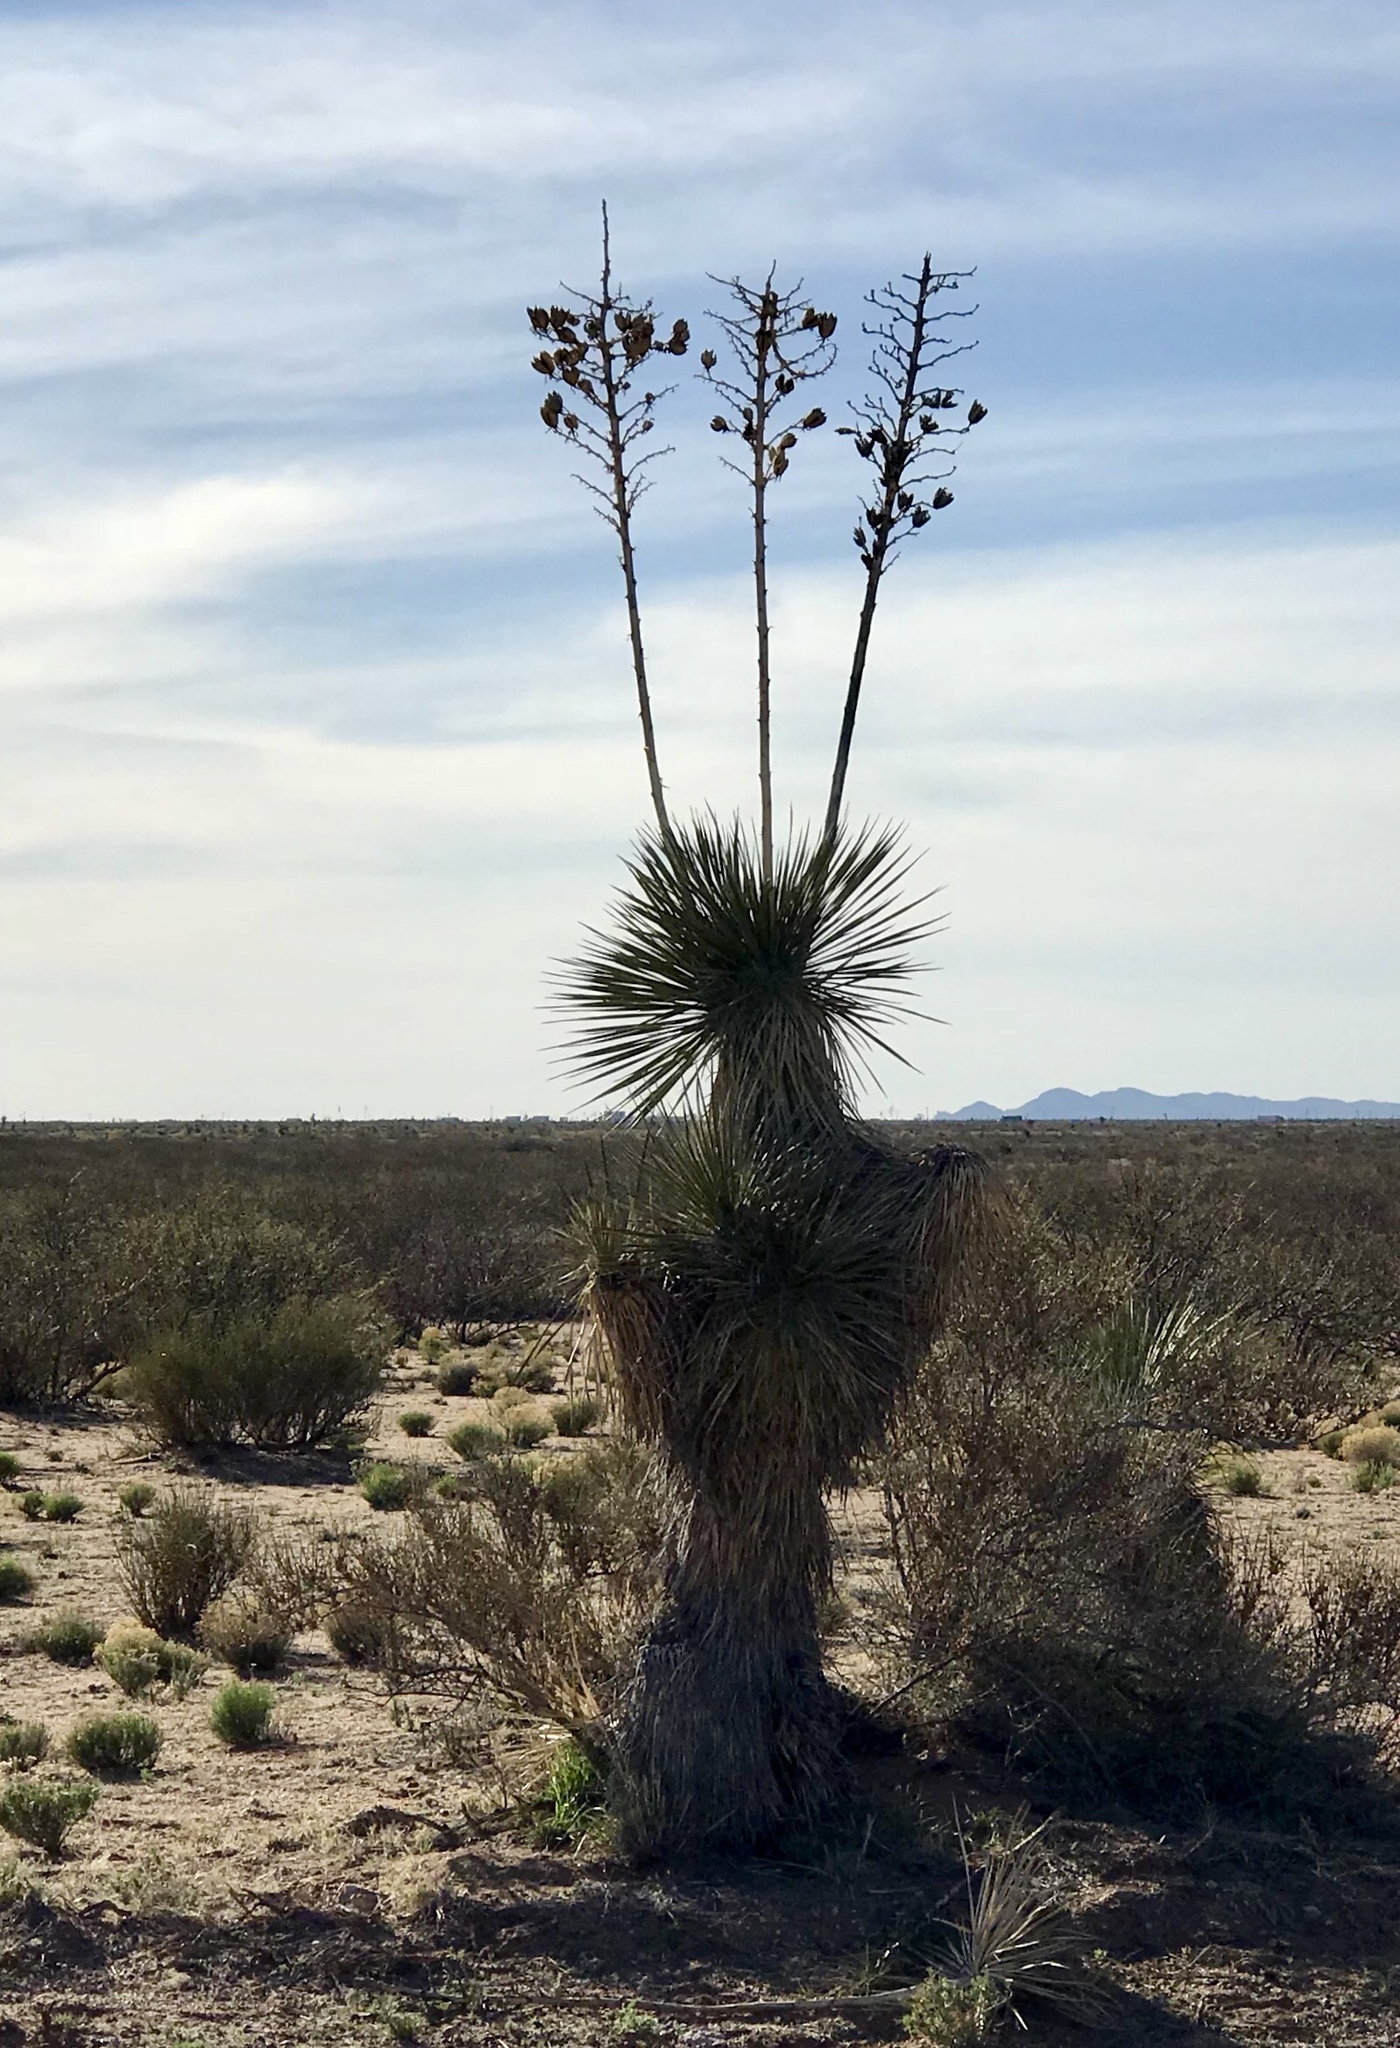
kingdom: Plantae
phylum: Tracheophyta
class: Liliopsida
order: Asparagales
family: Asparagaceae
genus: Yucca
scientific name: Yucca elata
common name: Palmella
